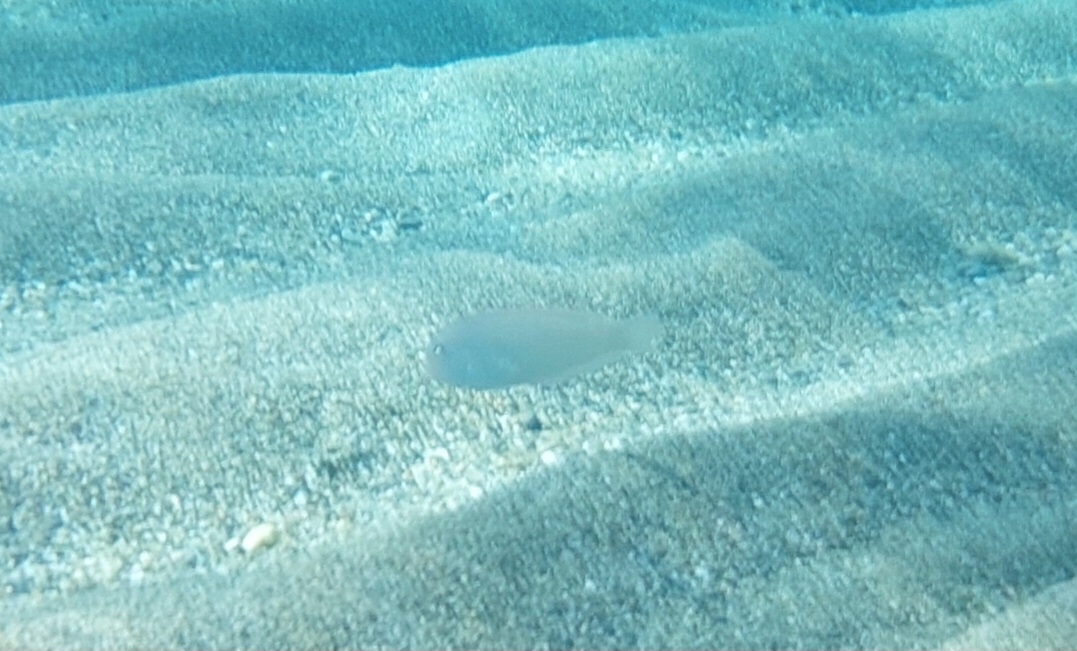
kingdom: Animalia
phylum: Chordata
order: Perciformes
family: Labridae
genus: Xyrichtys
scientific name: Xyrichtys novacula
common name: Pearly razorfish
